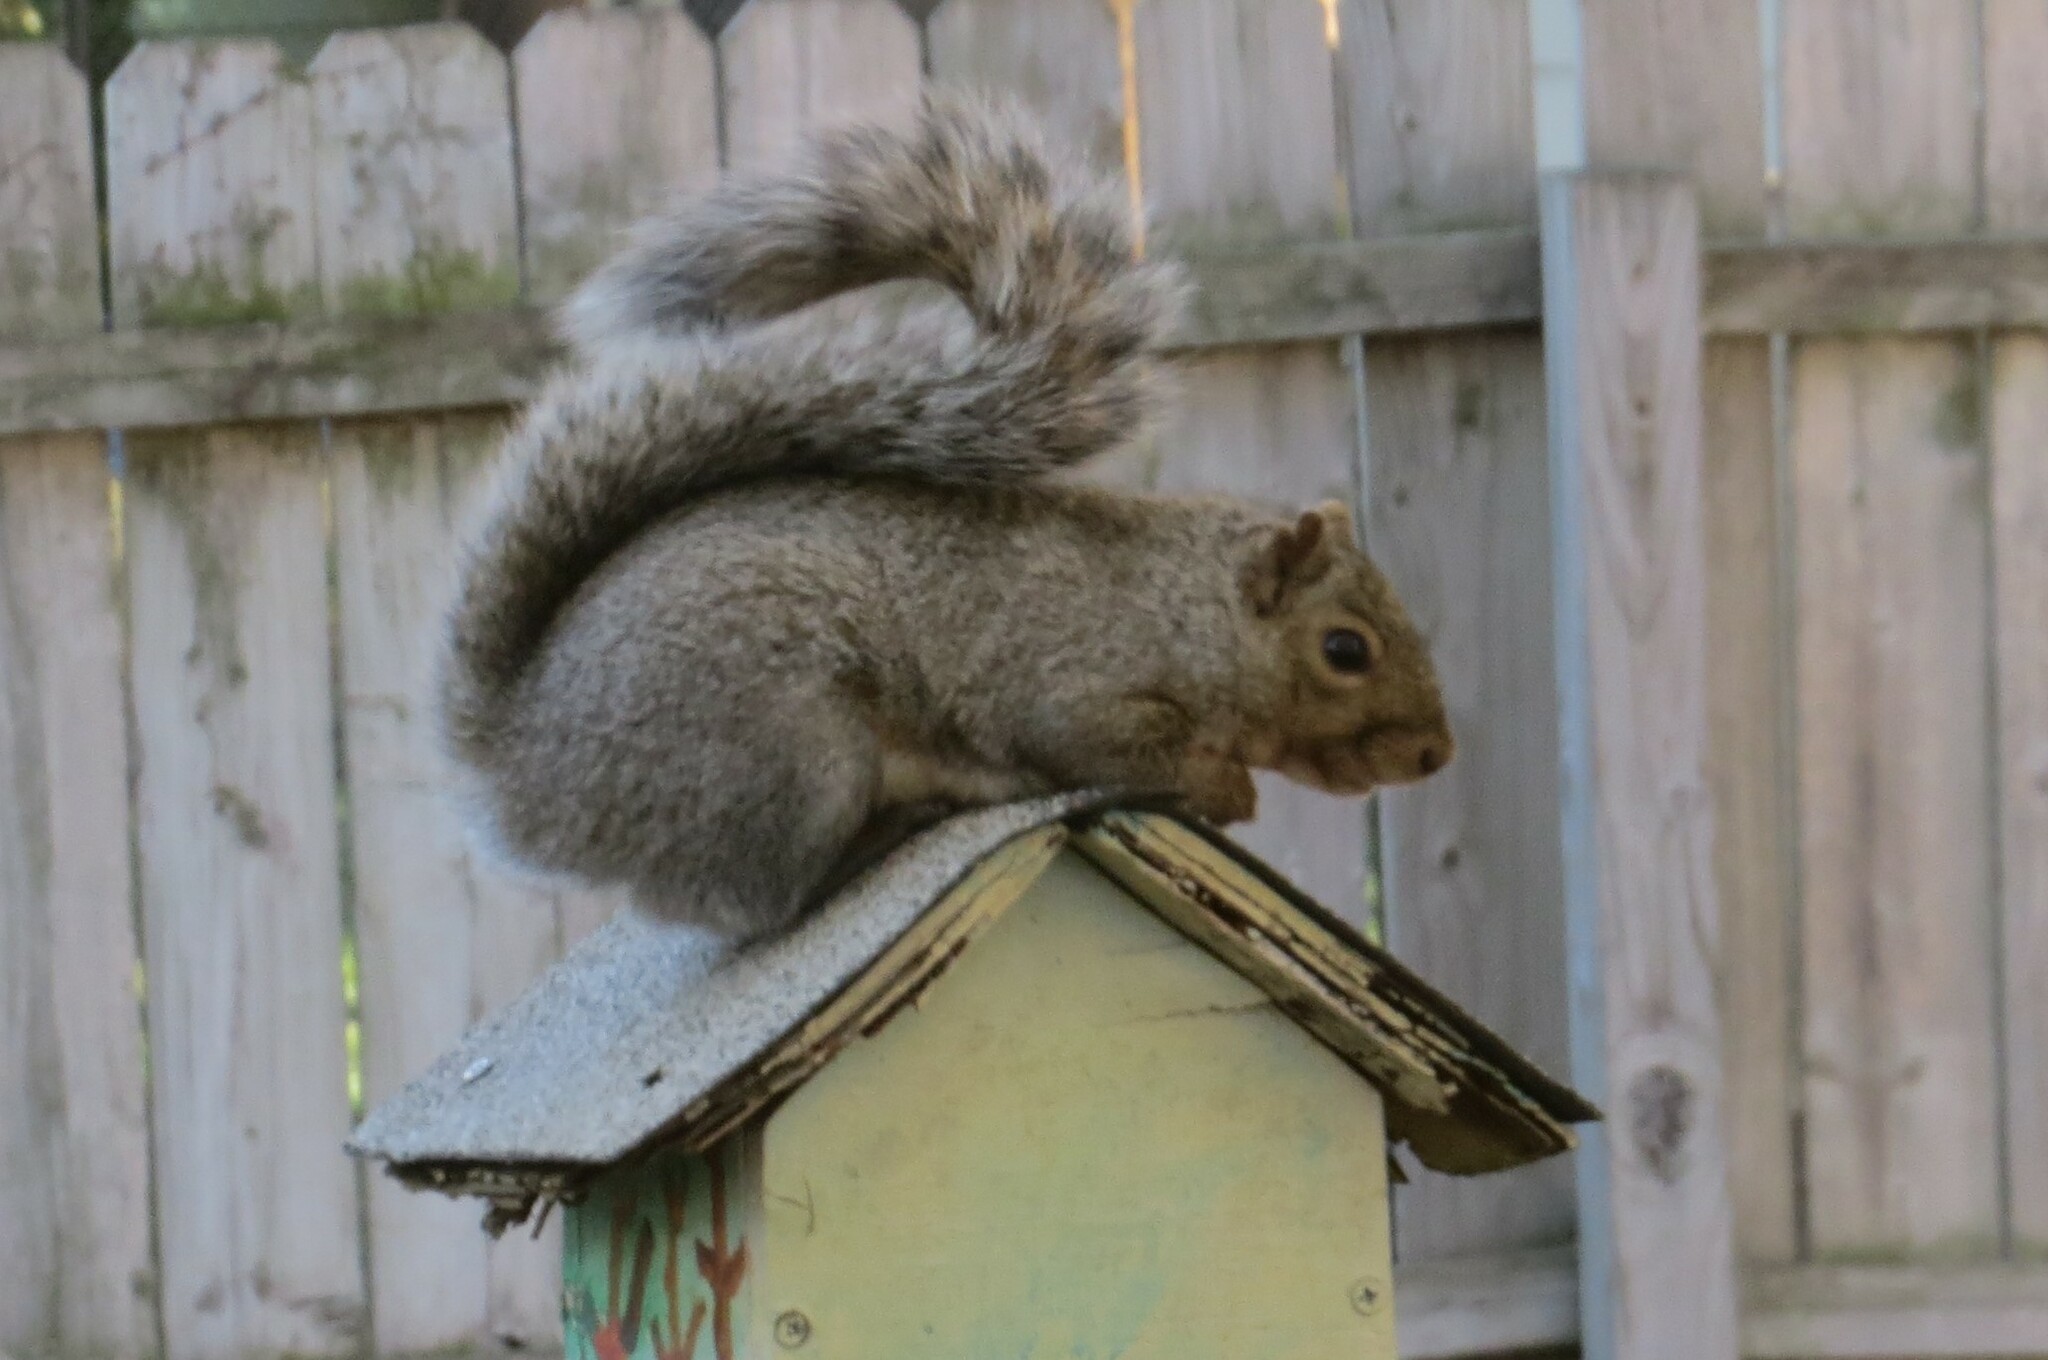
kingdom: Animalia
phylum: Chordata
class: Mammalia
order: Rodentia
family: Sciuridae
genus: Sciurus
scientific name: Sciurus carolinensis
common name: Eastern gray squirrel
